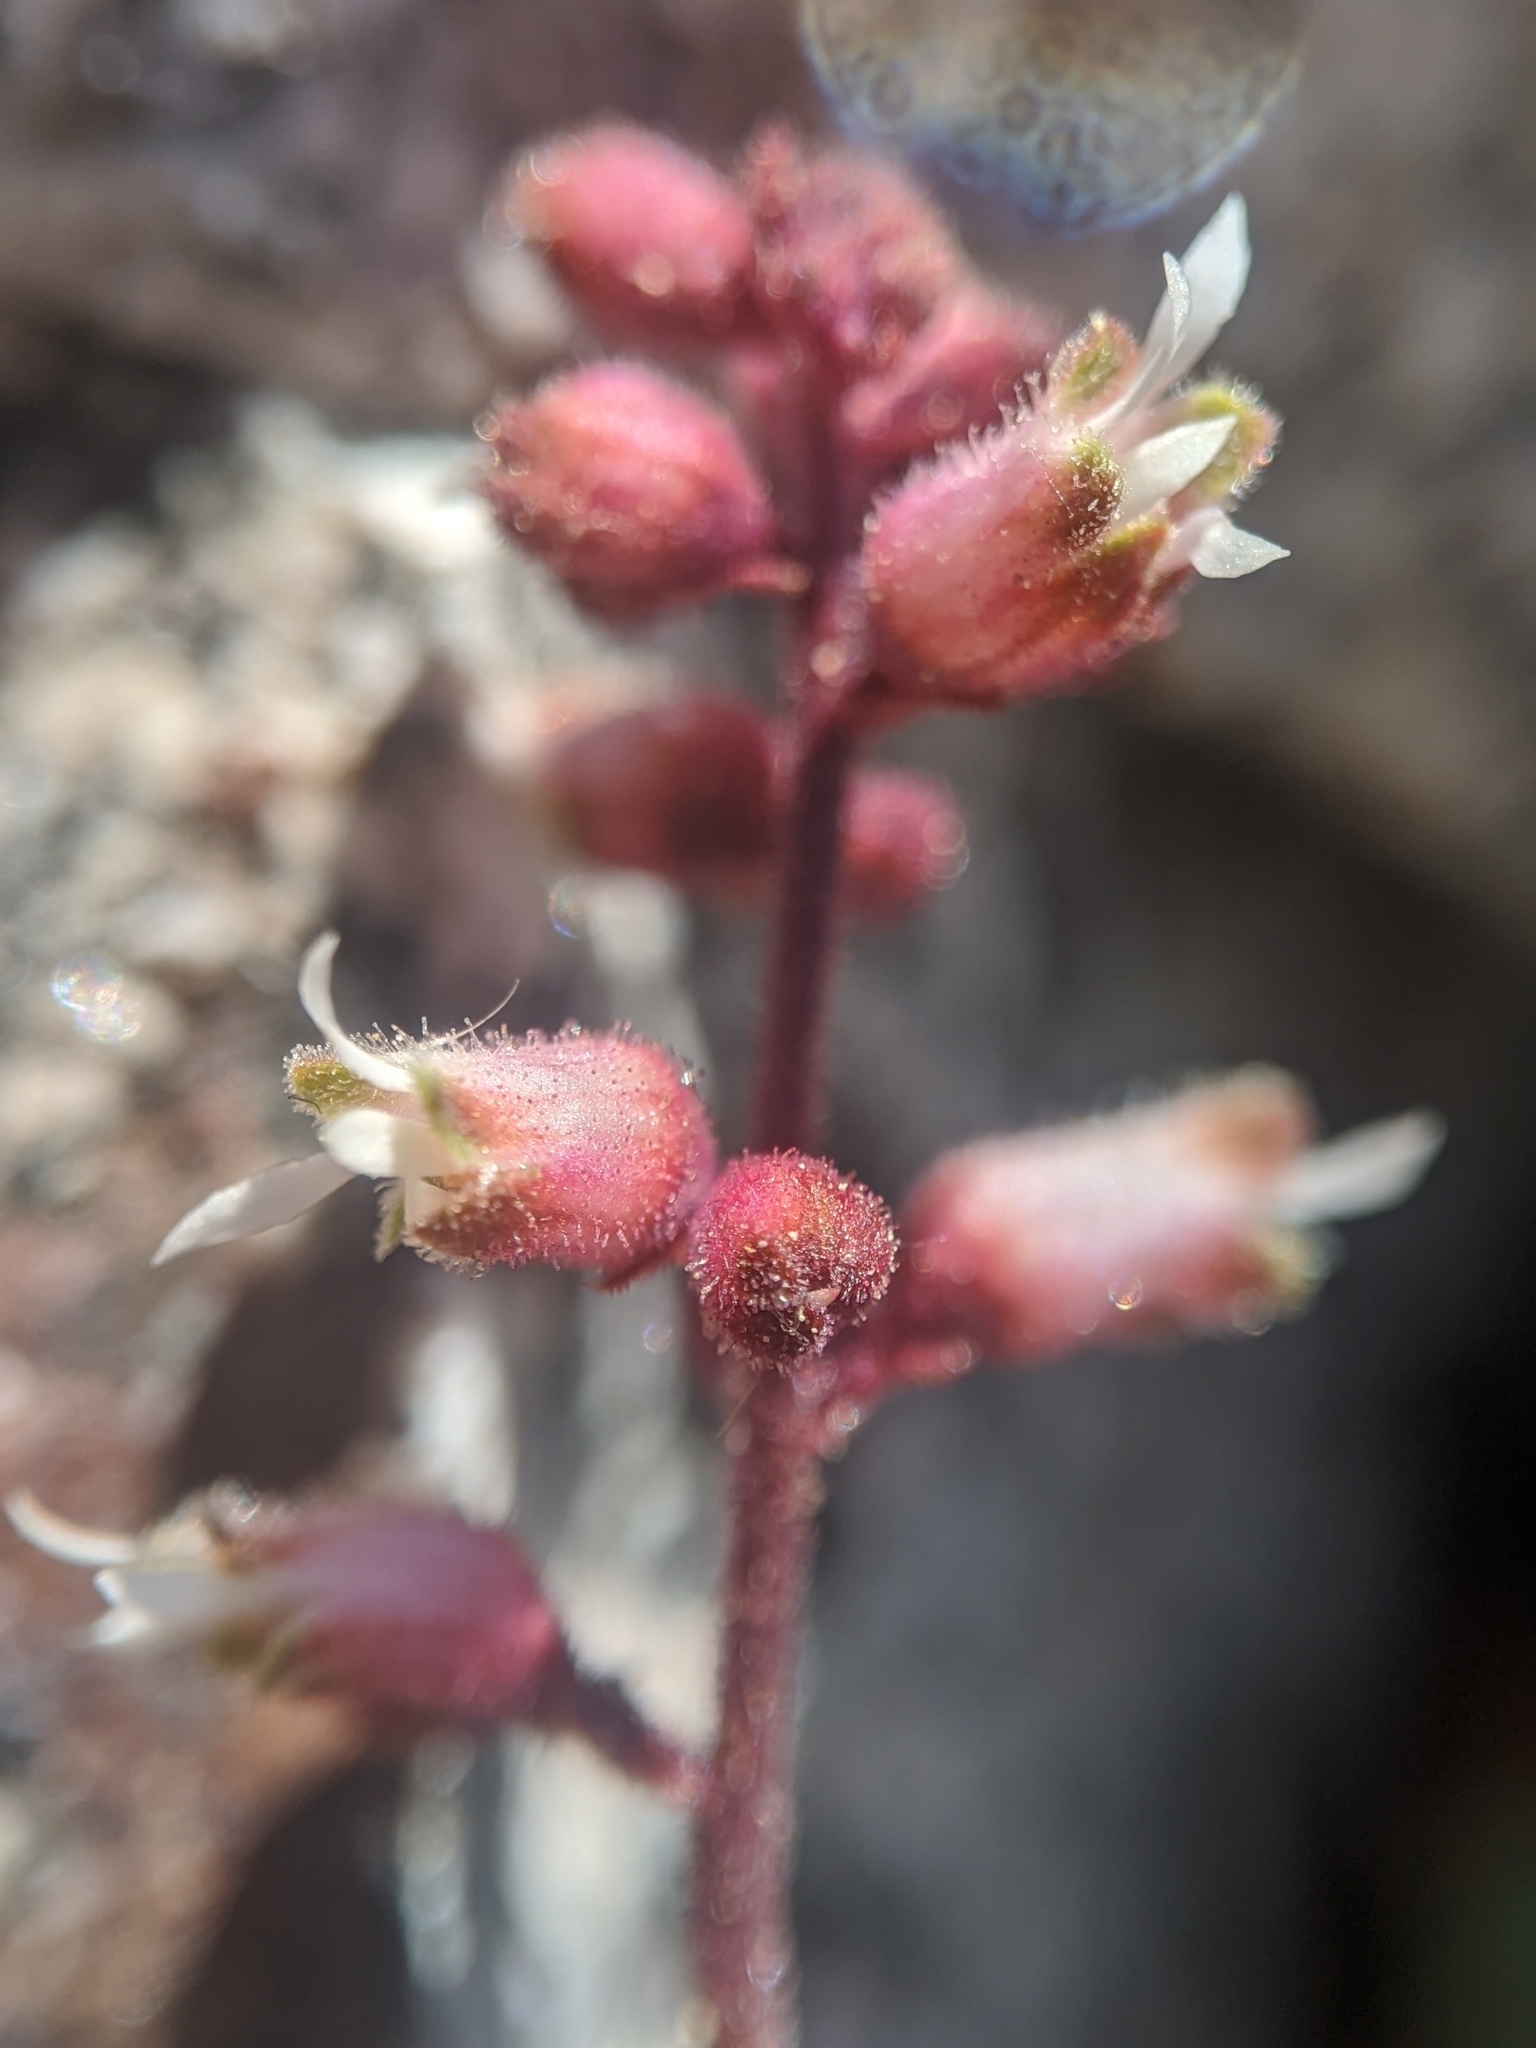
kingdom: Plantae
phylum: Tracheophyta
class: Magnoliopsida
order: Saxifragales
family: Saxifragaceae
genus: Heuchera
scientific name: Heuchera abramsii
